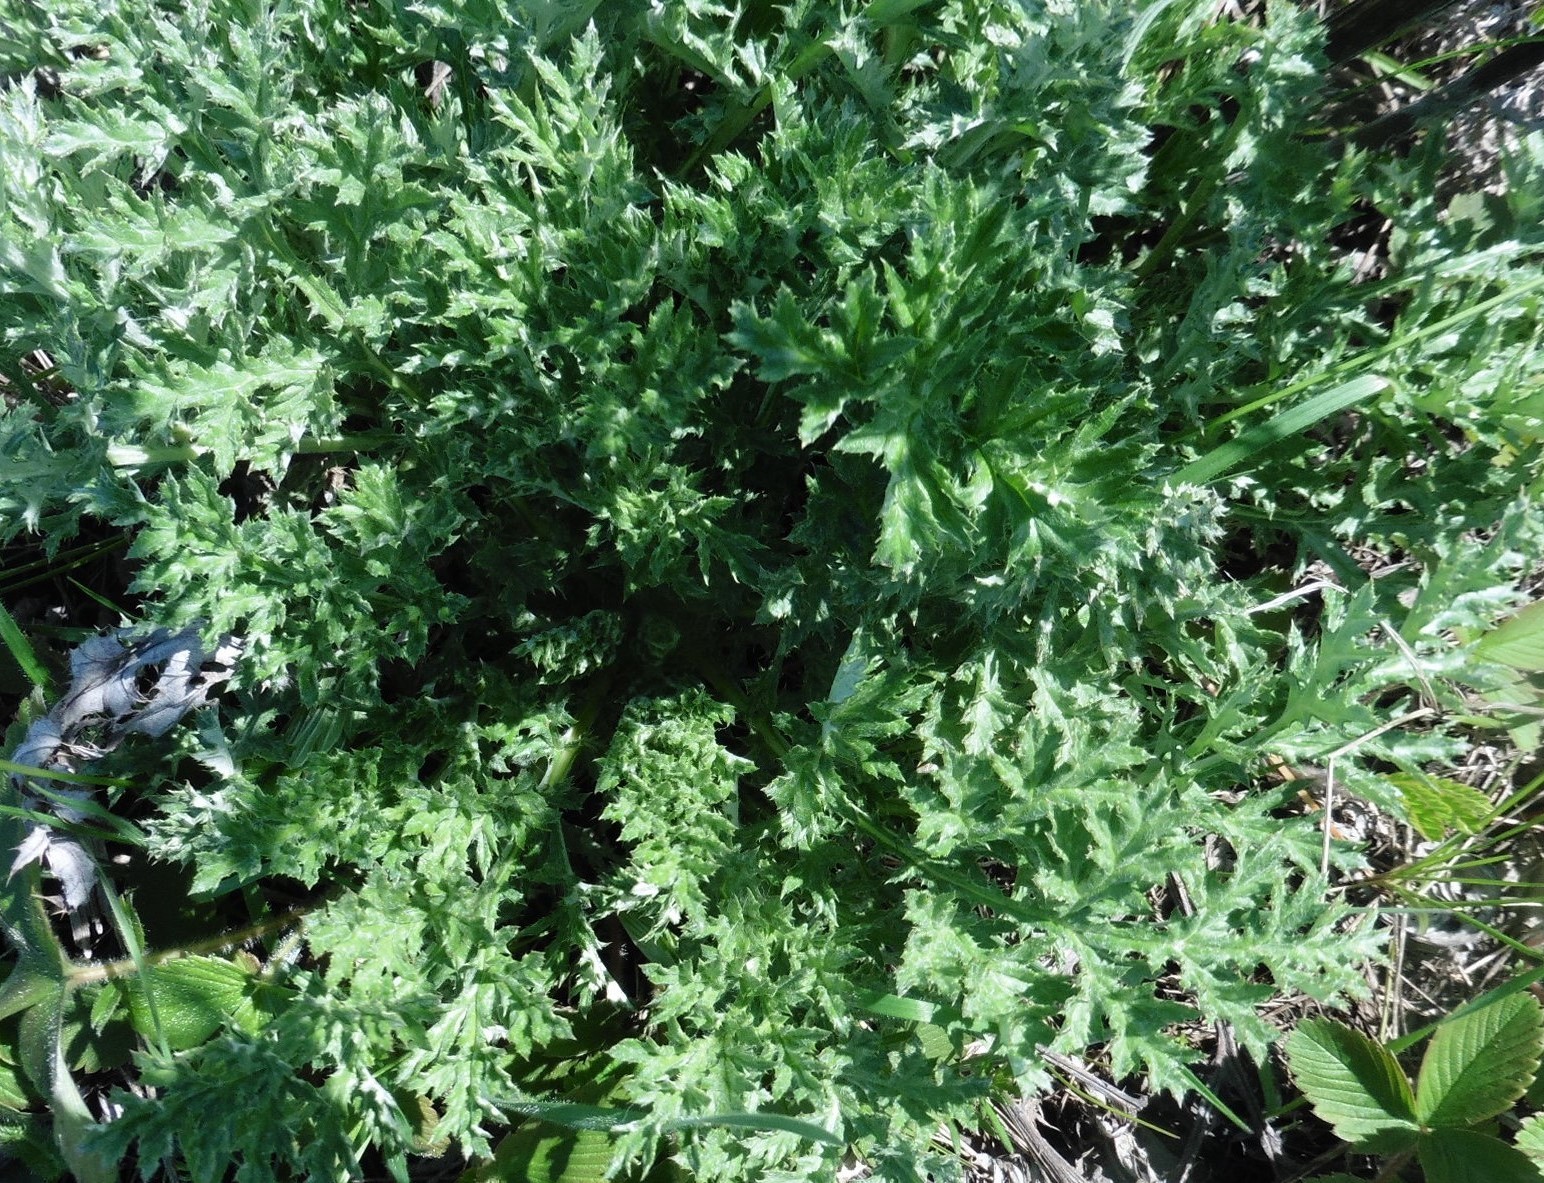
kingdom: Plantae
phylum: Tracheophyta
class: Magnoliopsida
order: Asterales
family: Asteraceae
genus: Echinops
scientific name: Echinops ritro
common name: Globe thistle
